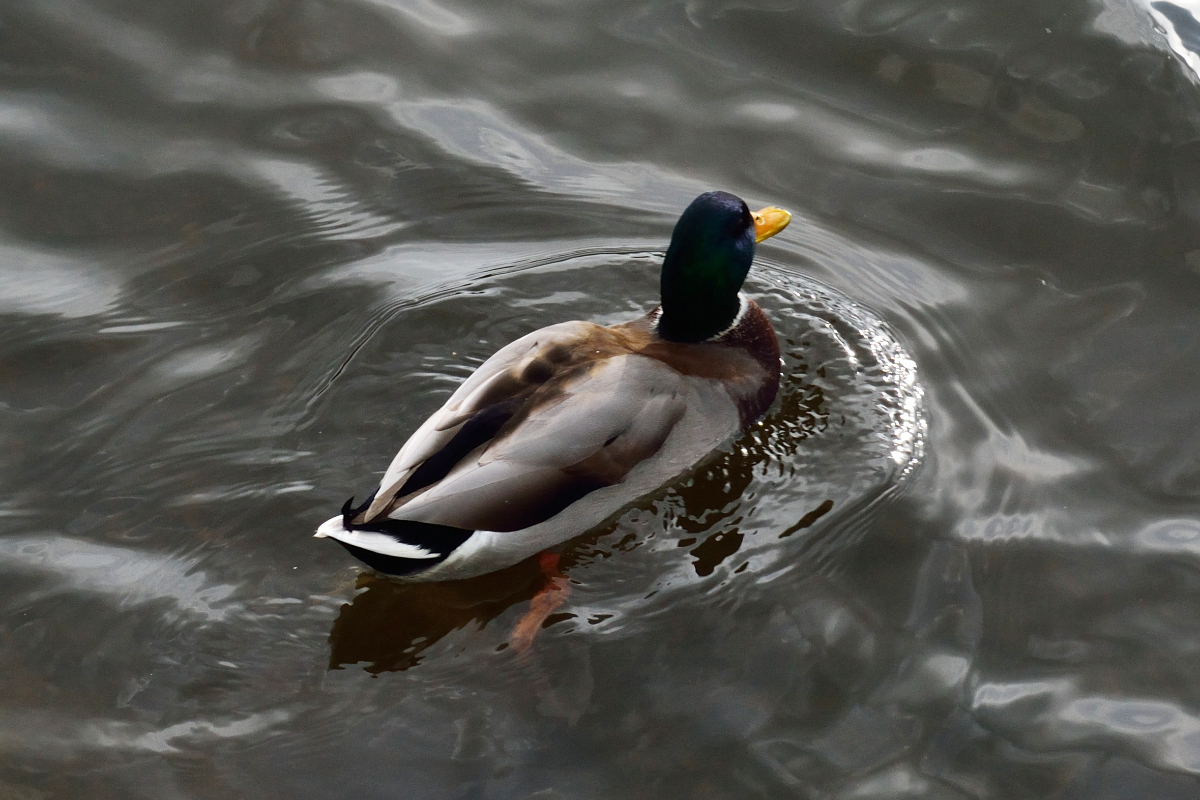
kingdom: Animalia
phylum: Chordata
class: Aves
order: Anseriformes
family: Anatidae
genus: Anas
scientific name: Anas platyrhynchos
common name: Mallard
